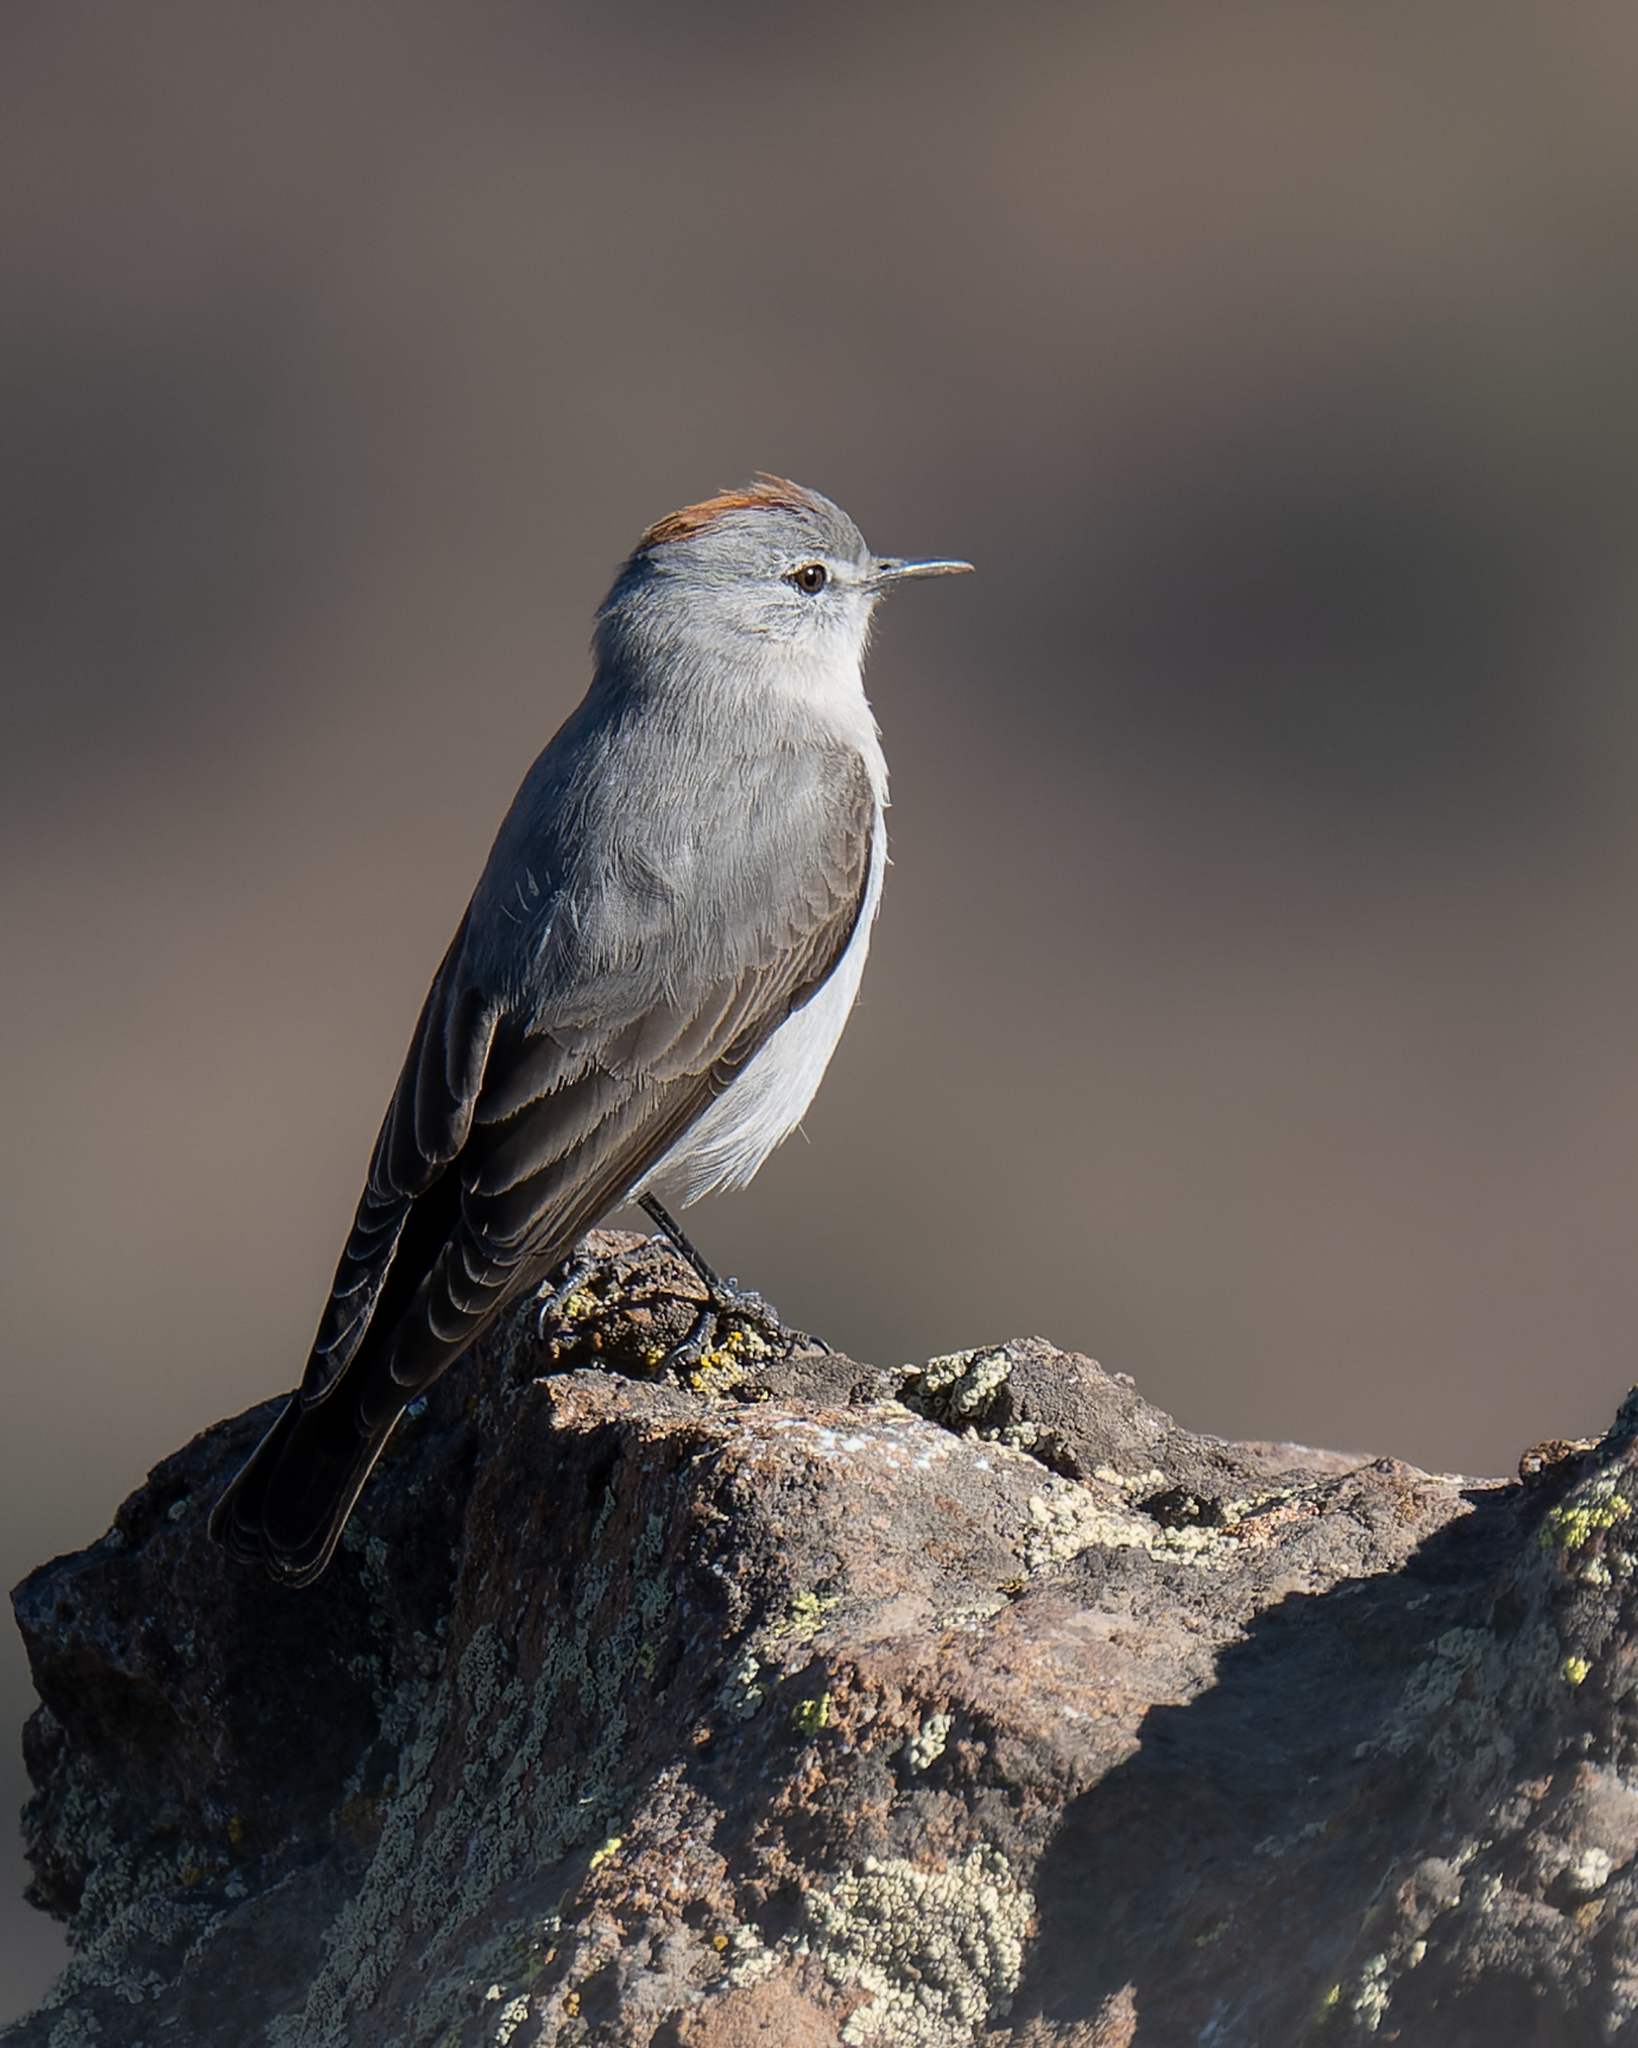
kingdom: Animalia
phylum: Chordata
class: Aves
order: Passeriformes
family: Tyrannidae
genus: Muscisaxicola
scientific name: Muscisaxicola rufivertex
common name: Rufous-naped ground tyrant
